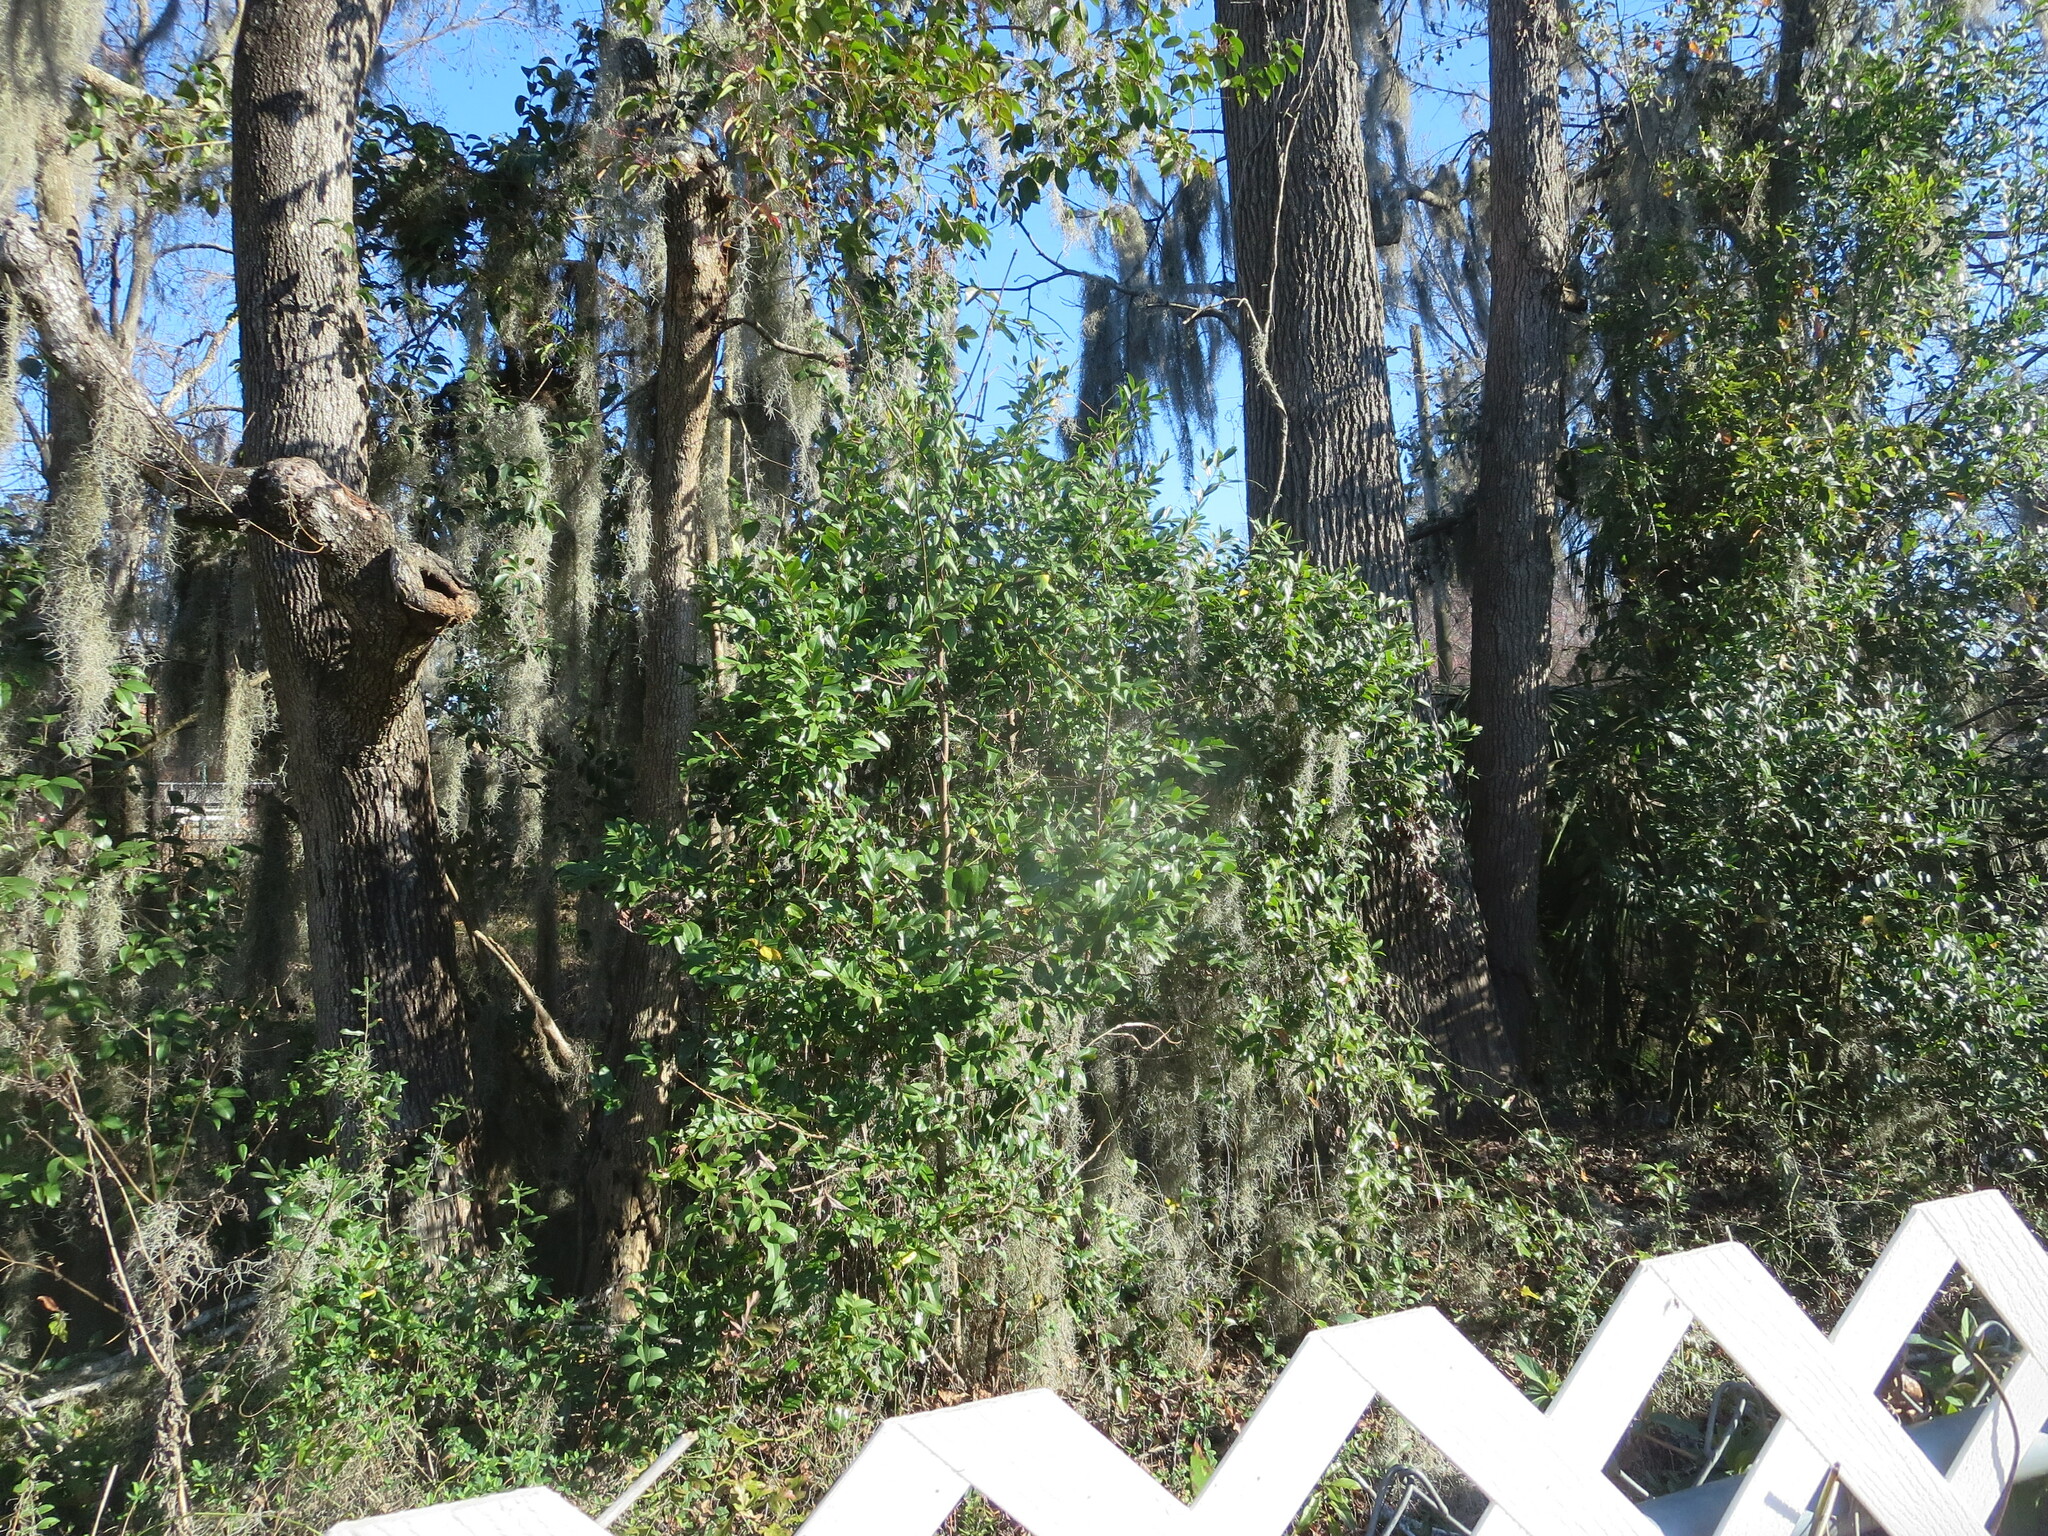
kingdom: Plantae
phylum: Tracheophyta
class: Magnoliopsida
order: Rosales
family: Rosaceae
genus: Prunus
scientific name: Prunus caroliniana
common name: Carolina laurel cherry
